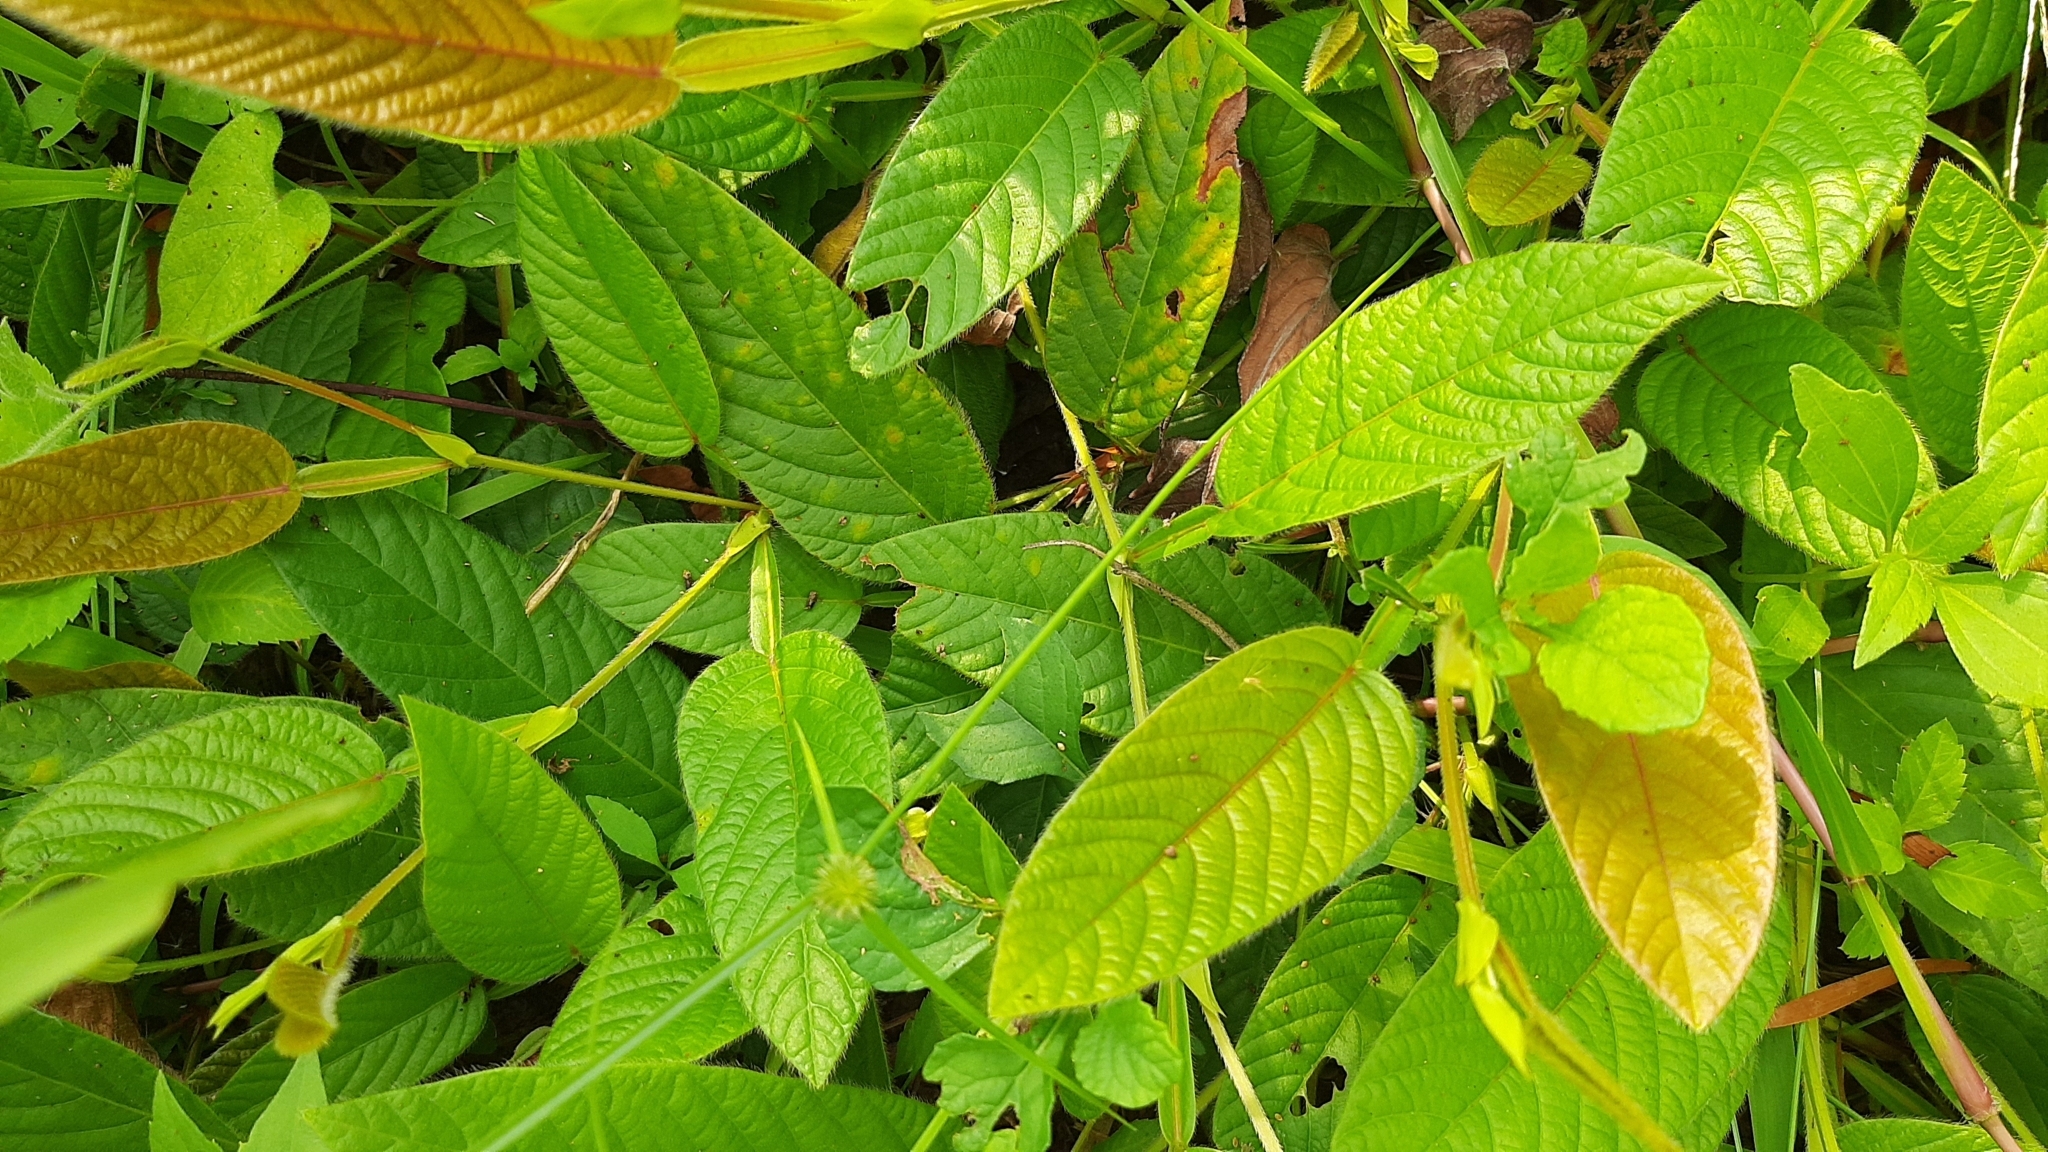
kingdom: Plantae
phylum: Tracheophyta
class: Magnoliopsida
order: Fabales
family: Fabaceae
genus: Tadehagi
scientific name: Tadehagi triquetrum
